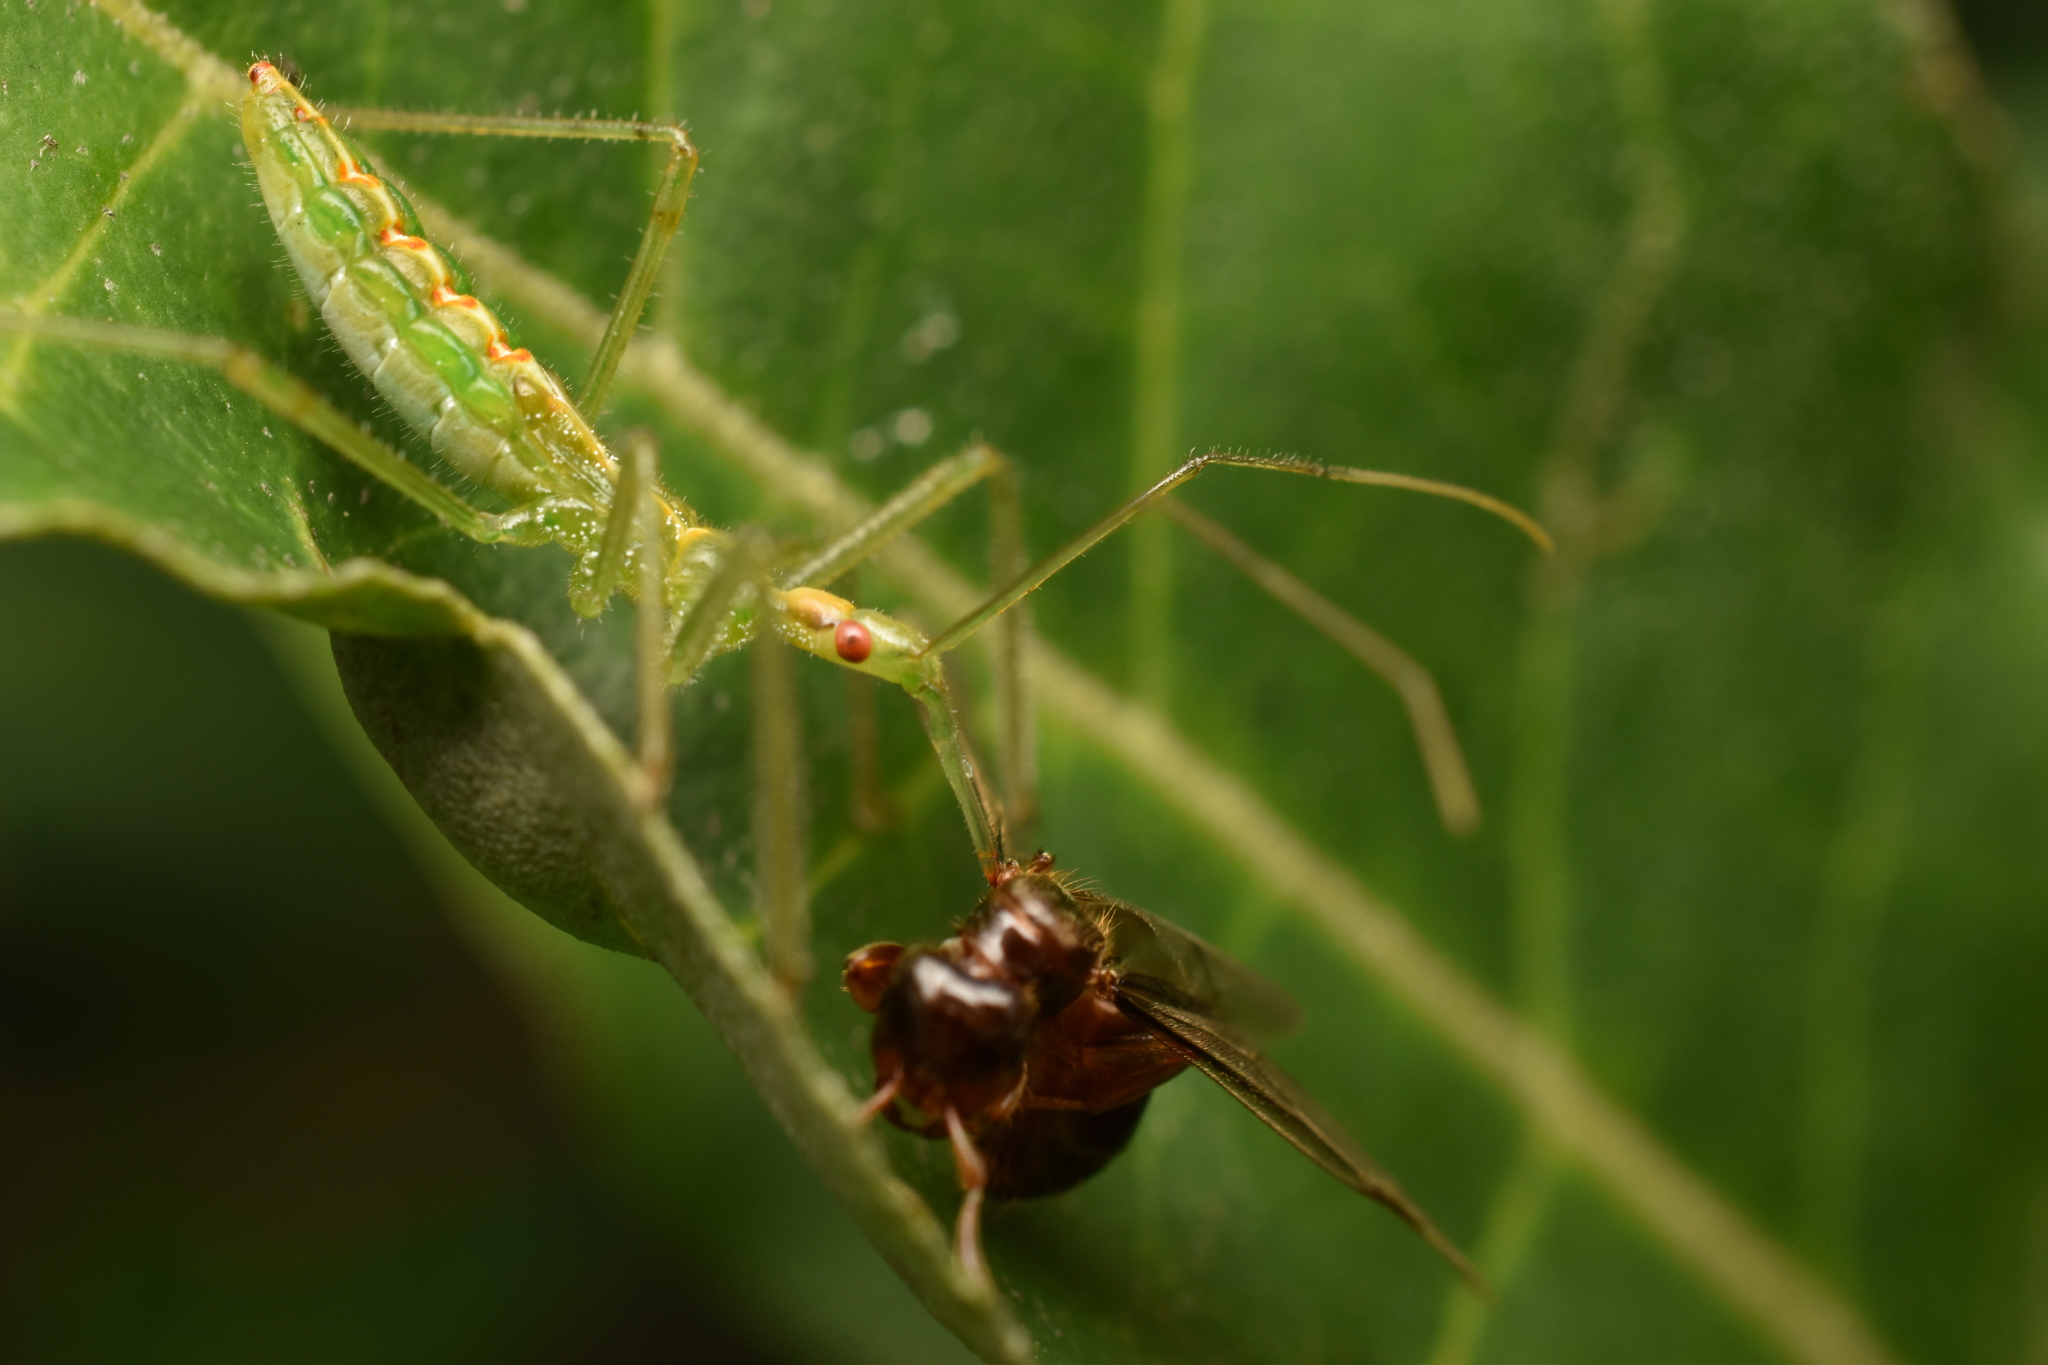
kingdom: Animalia
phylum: Arthropoda
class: Insecta
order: Hemiptera
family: Reduviidae
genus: Zelus
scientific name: Zelus luridus
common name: Pale green assassin bug
